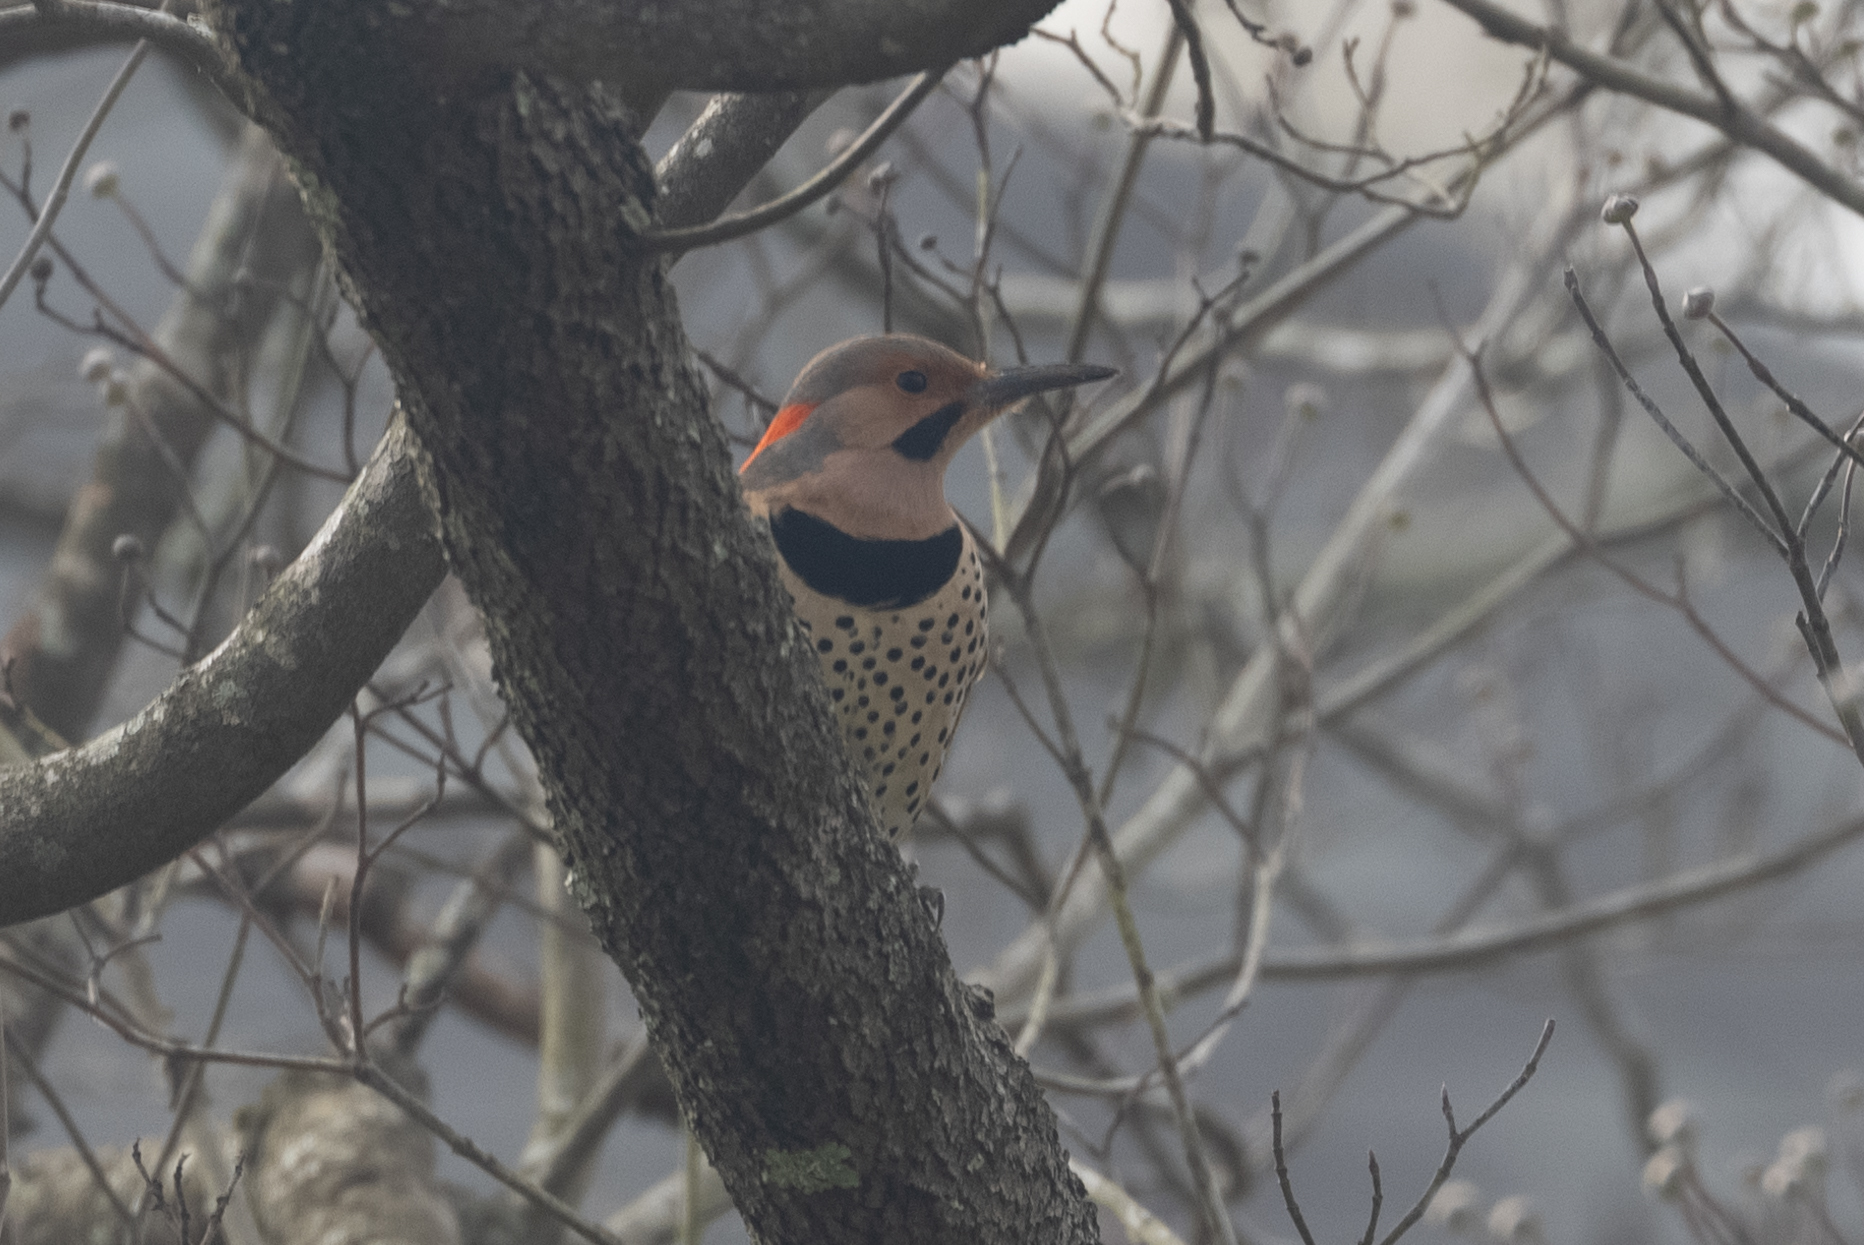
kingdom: Animalia
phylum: Chordata
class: Aves
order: Piciformes
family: Picidae
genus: Colaptes
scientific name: Colaptes auratus
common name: Northern flicker
